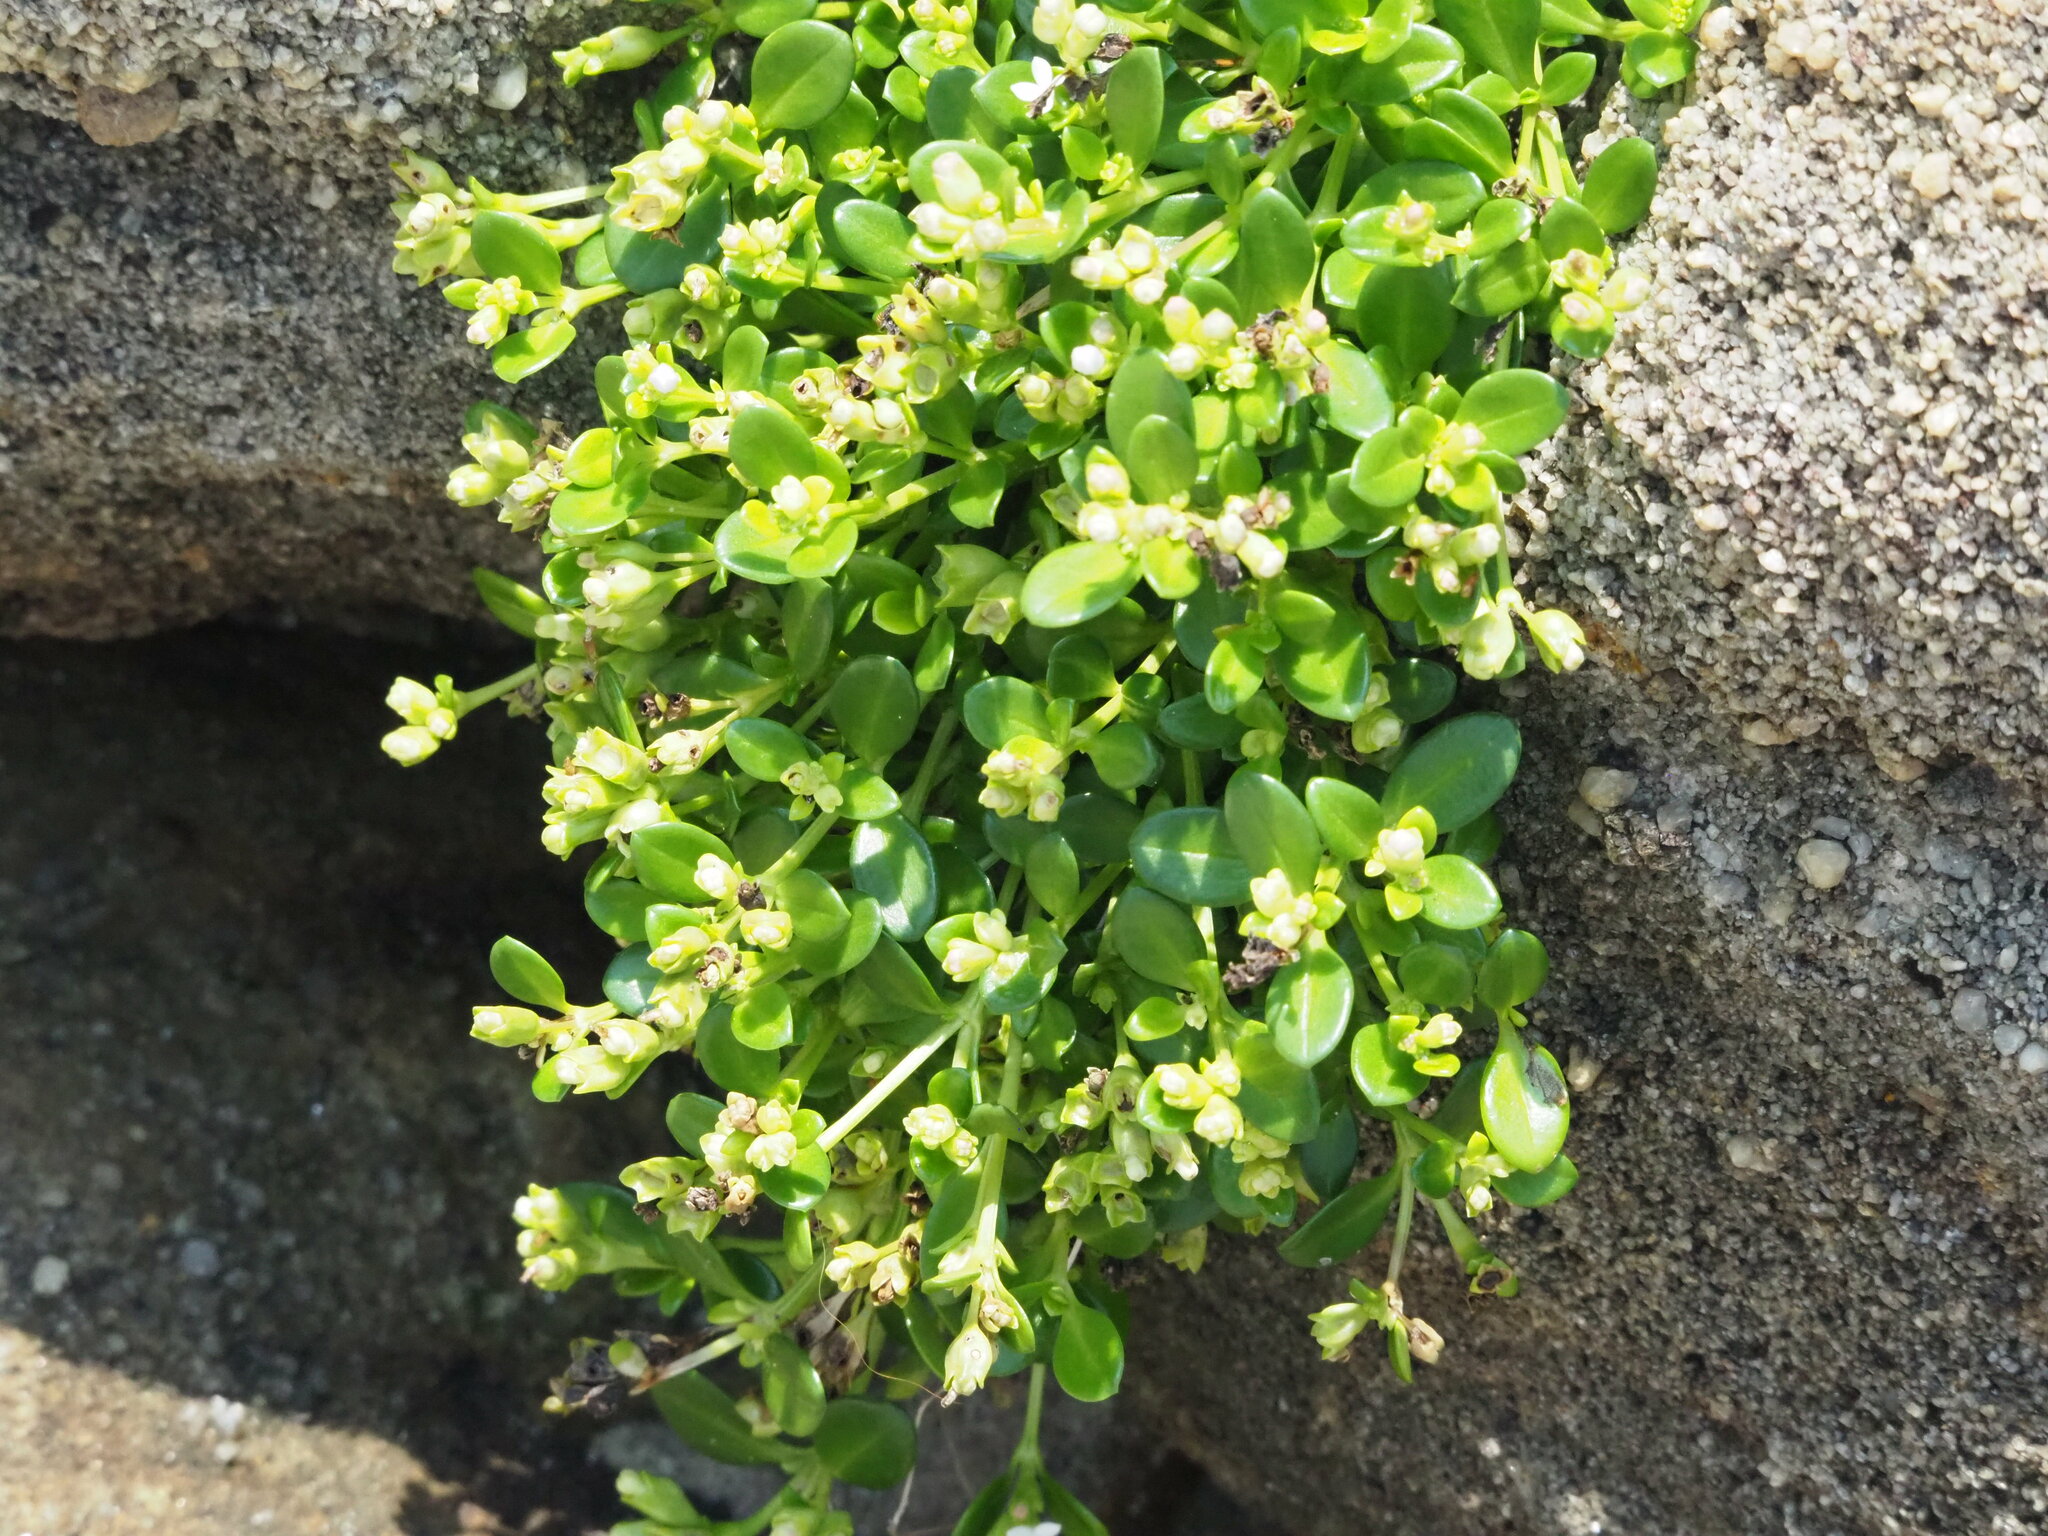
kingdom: Plantae
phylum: Tracheophyta
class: Magnoliopsida
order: Gentianales
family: Rubiaceae
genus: Leptopetalum
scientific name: Leptopetalum strigulosum
